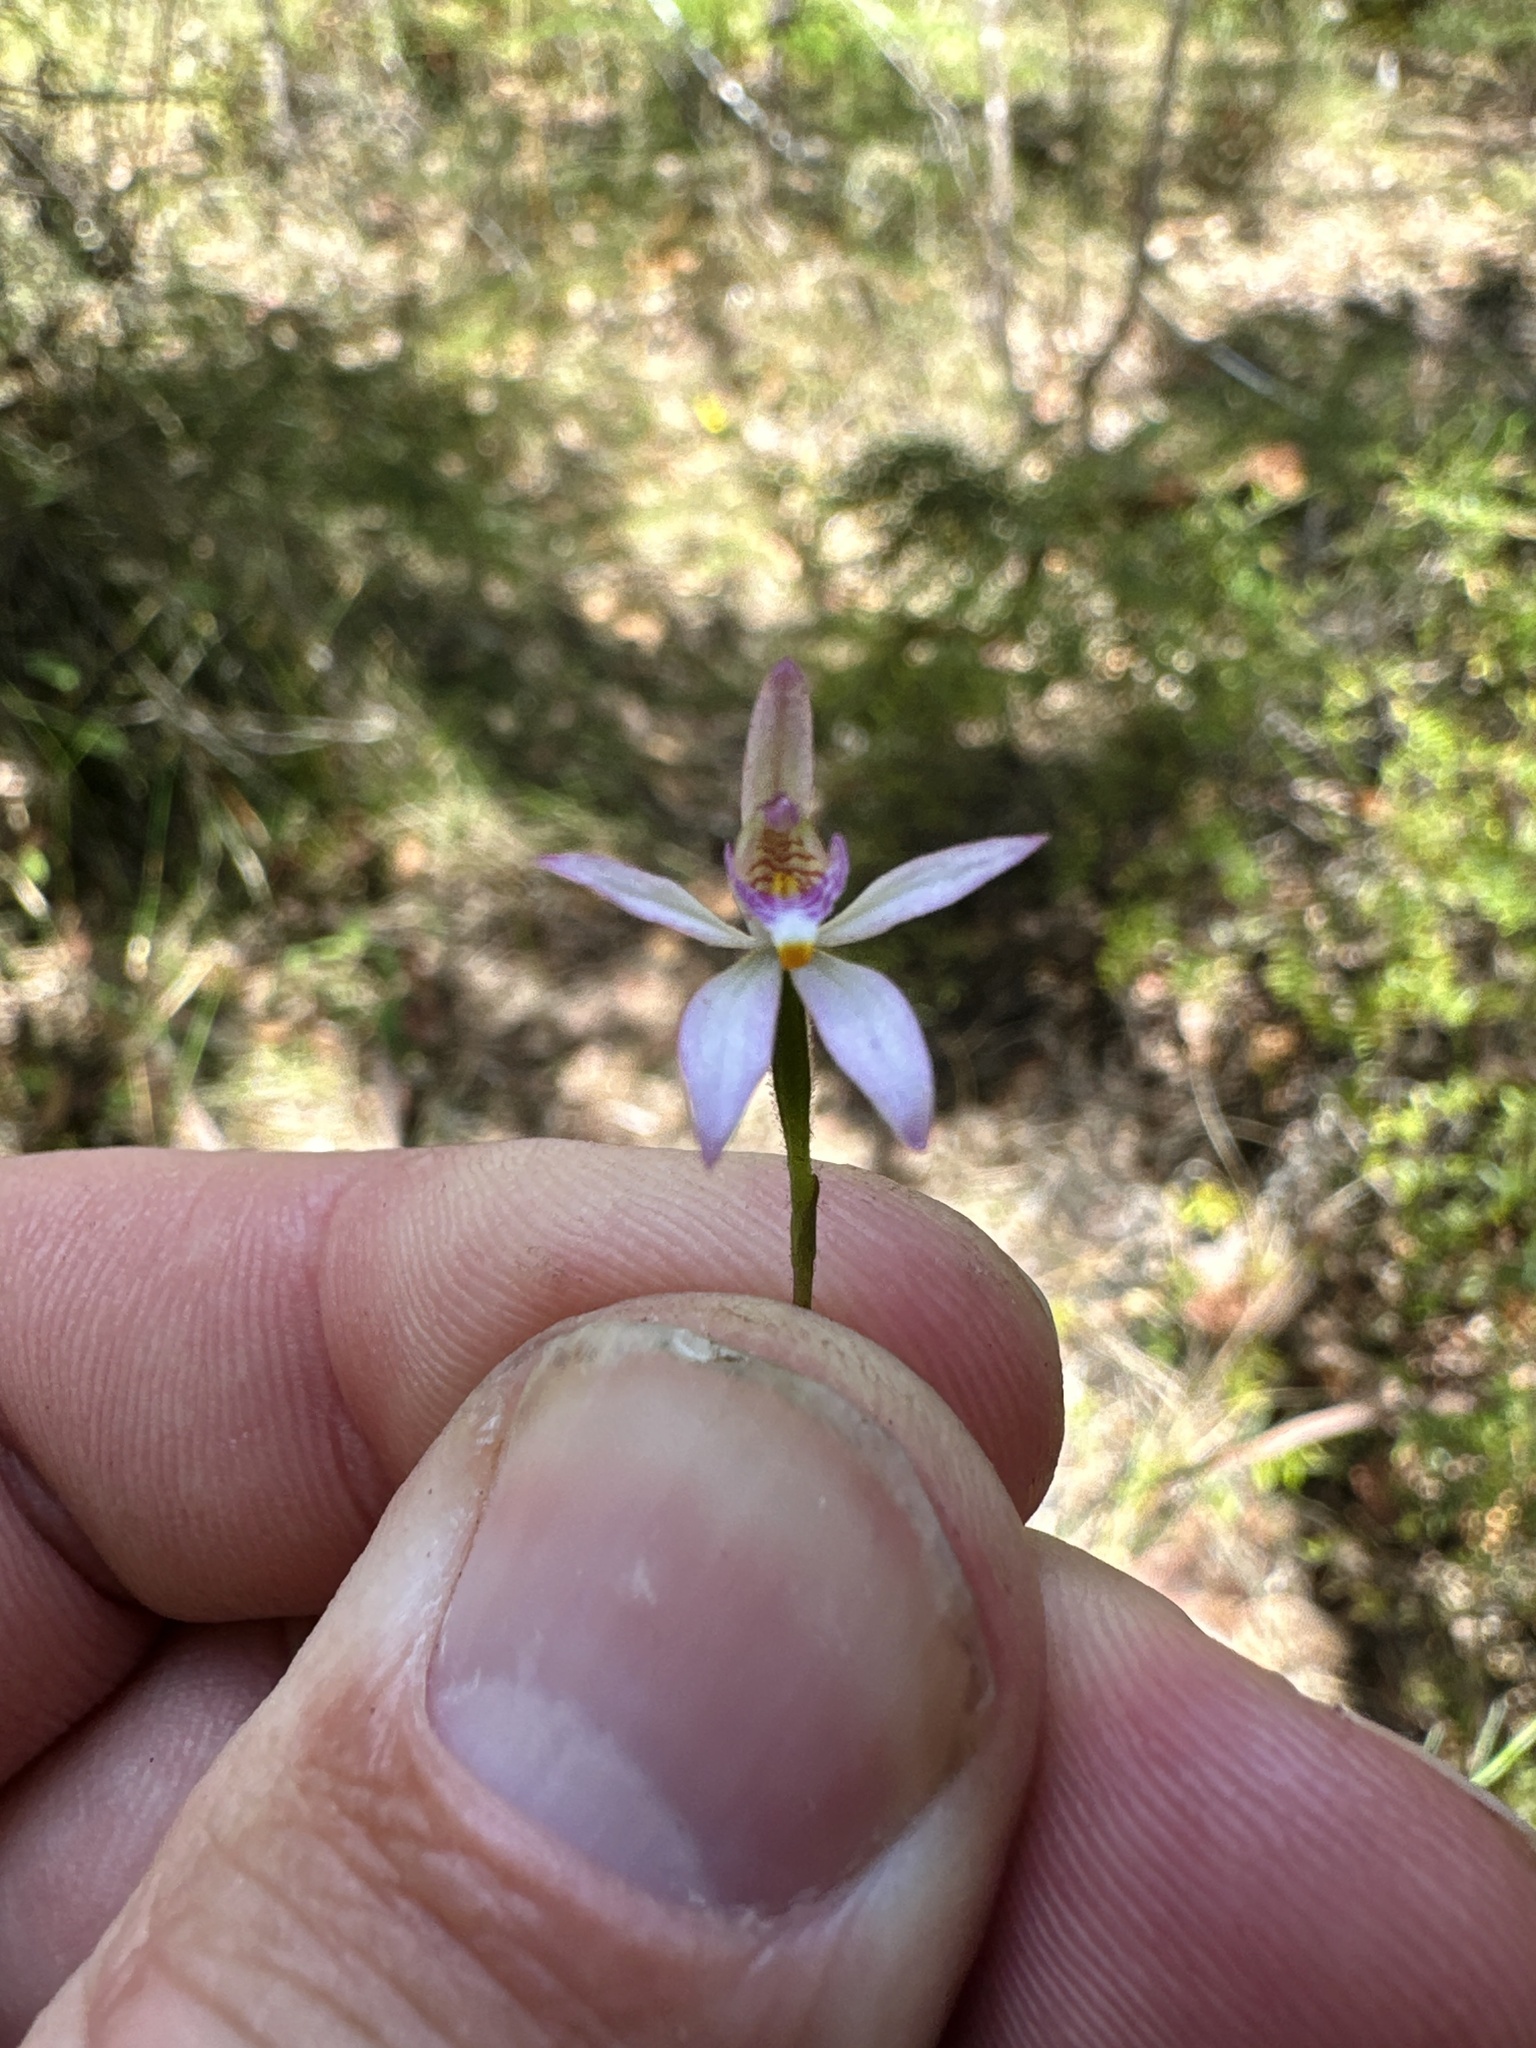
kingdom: Plantae
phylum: Tracheophyta
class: Liliopsida
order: Asparagales
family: Orchidaceae
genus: Caladenia
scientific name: Caladenia alata
